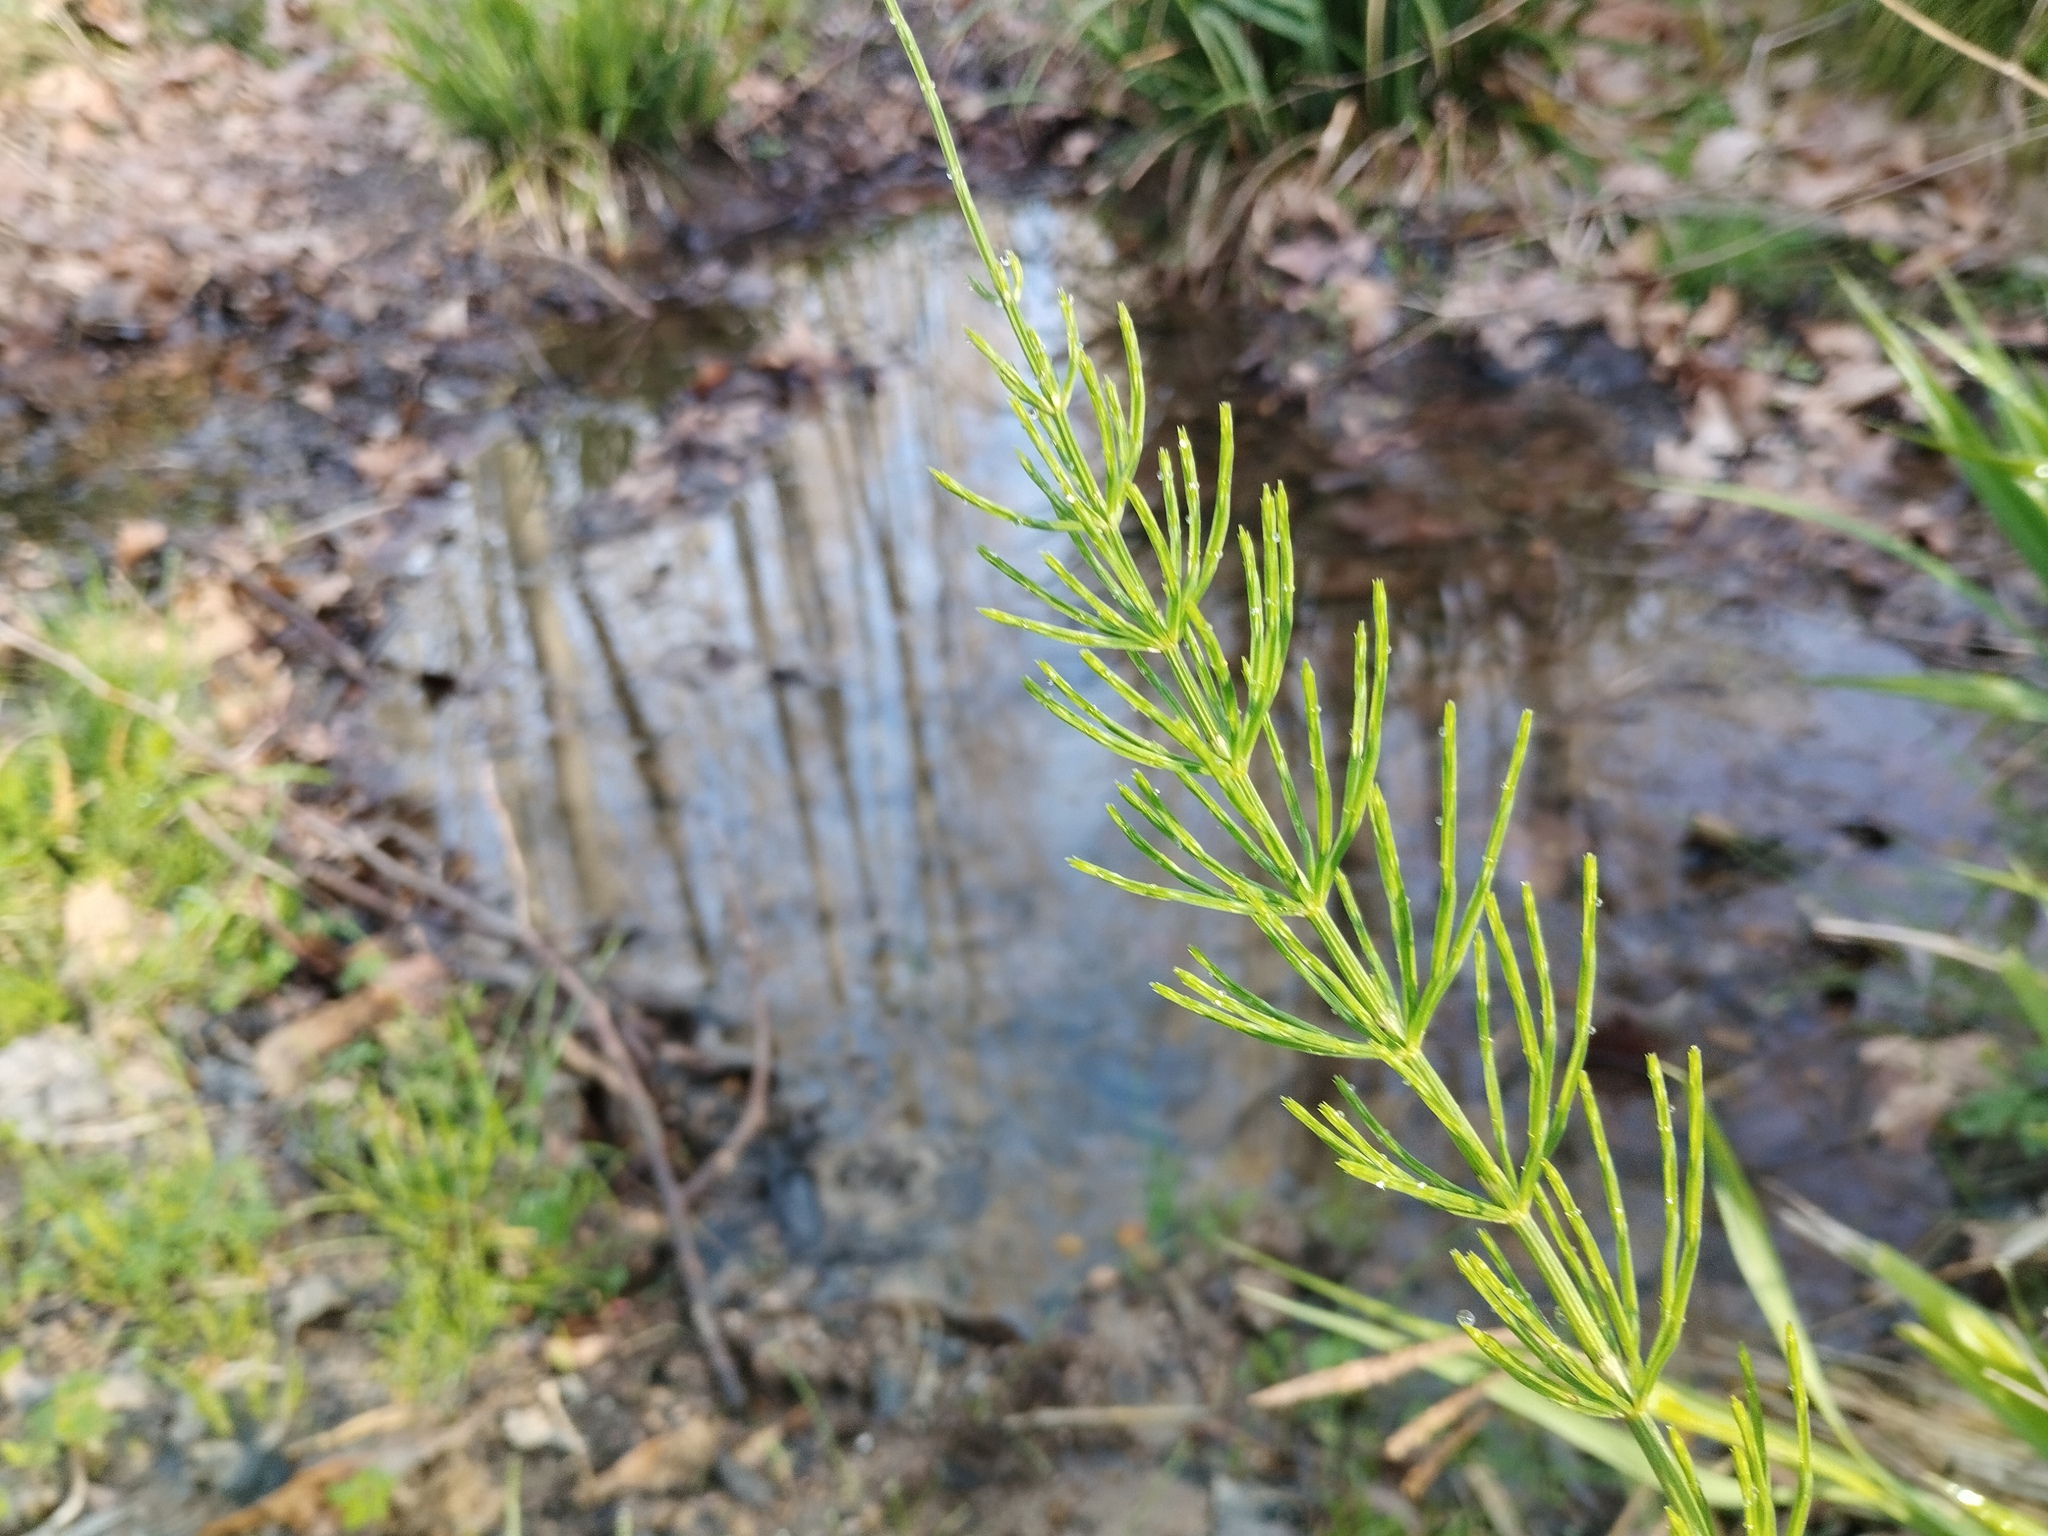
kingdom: Plantae
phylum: Tracheophyta
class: Polypodiopsida
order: Equisetales
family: Equisetaceae
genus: Equisetum
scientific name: Equisetum arvense
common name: Field horsetail
